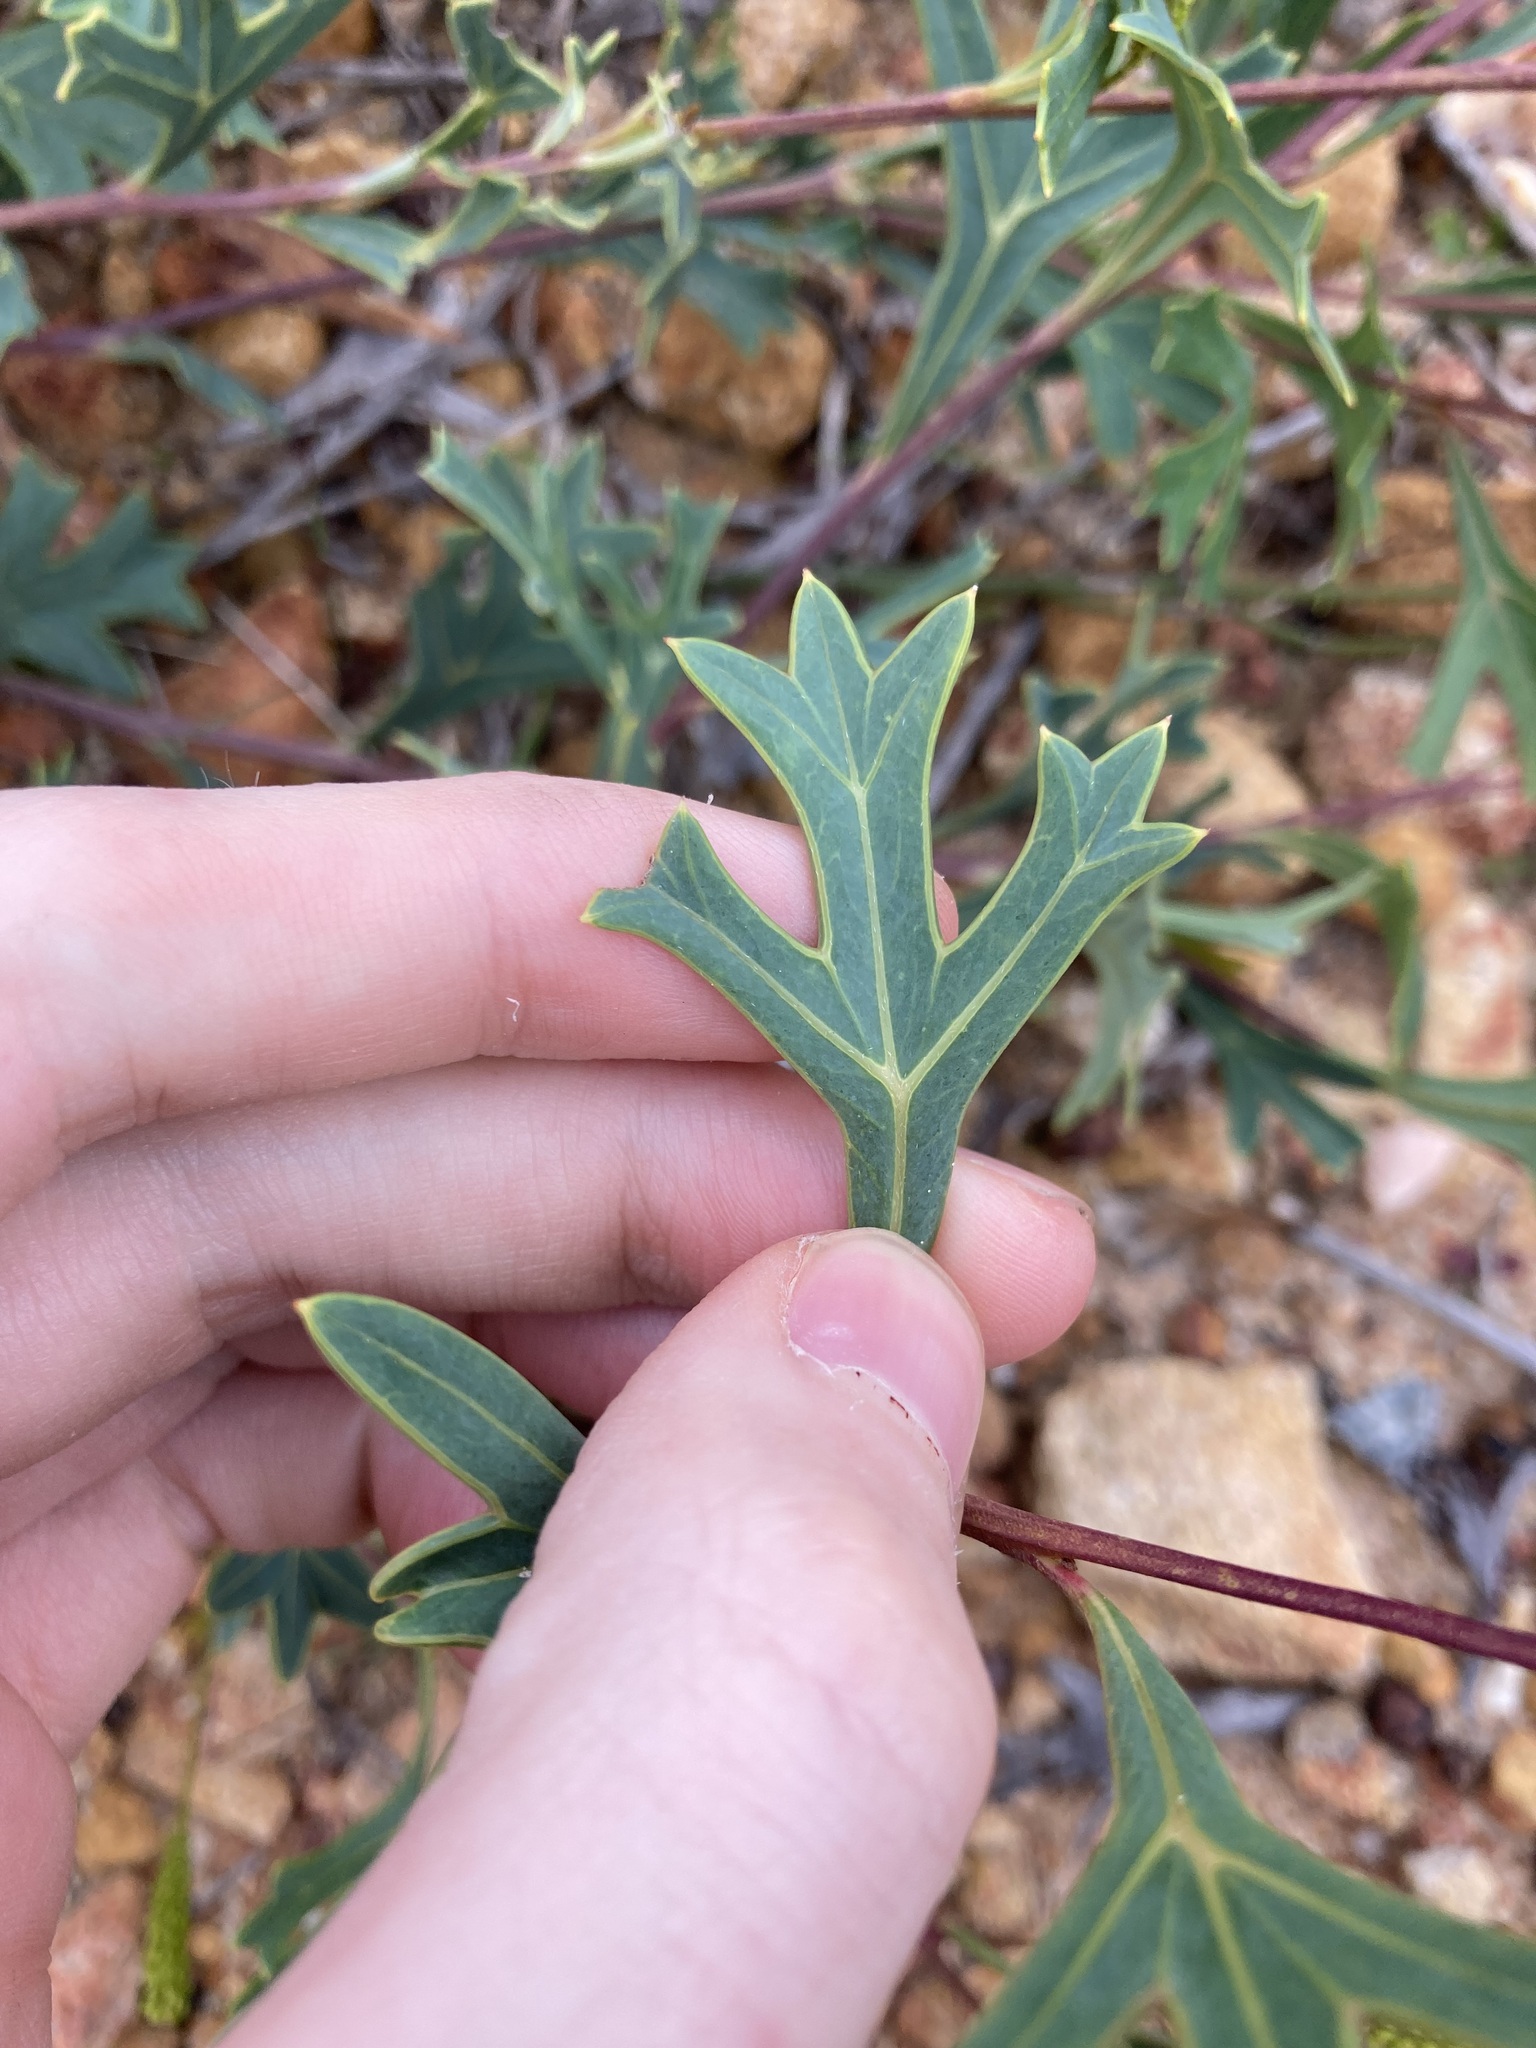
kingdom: Plantae
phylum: Tracheophyta
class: Magnoliopsida
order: Proteales
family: Proteaceae
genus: Grevillea
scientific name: Grevillea synaphea
